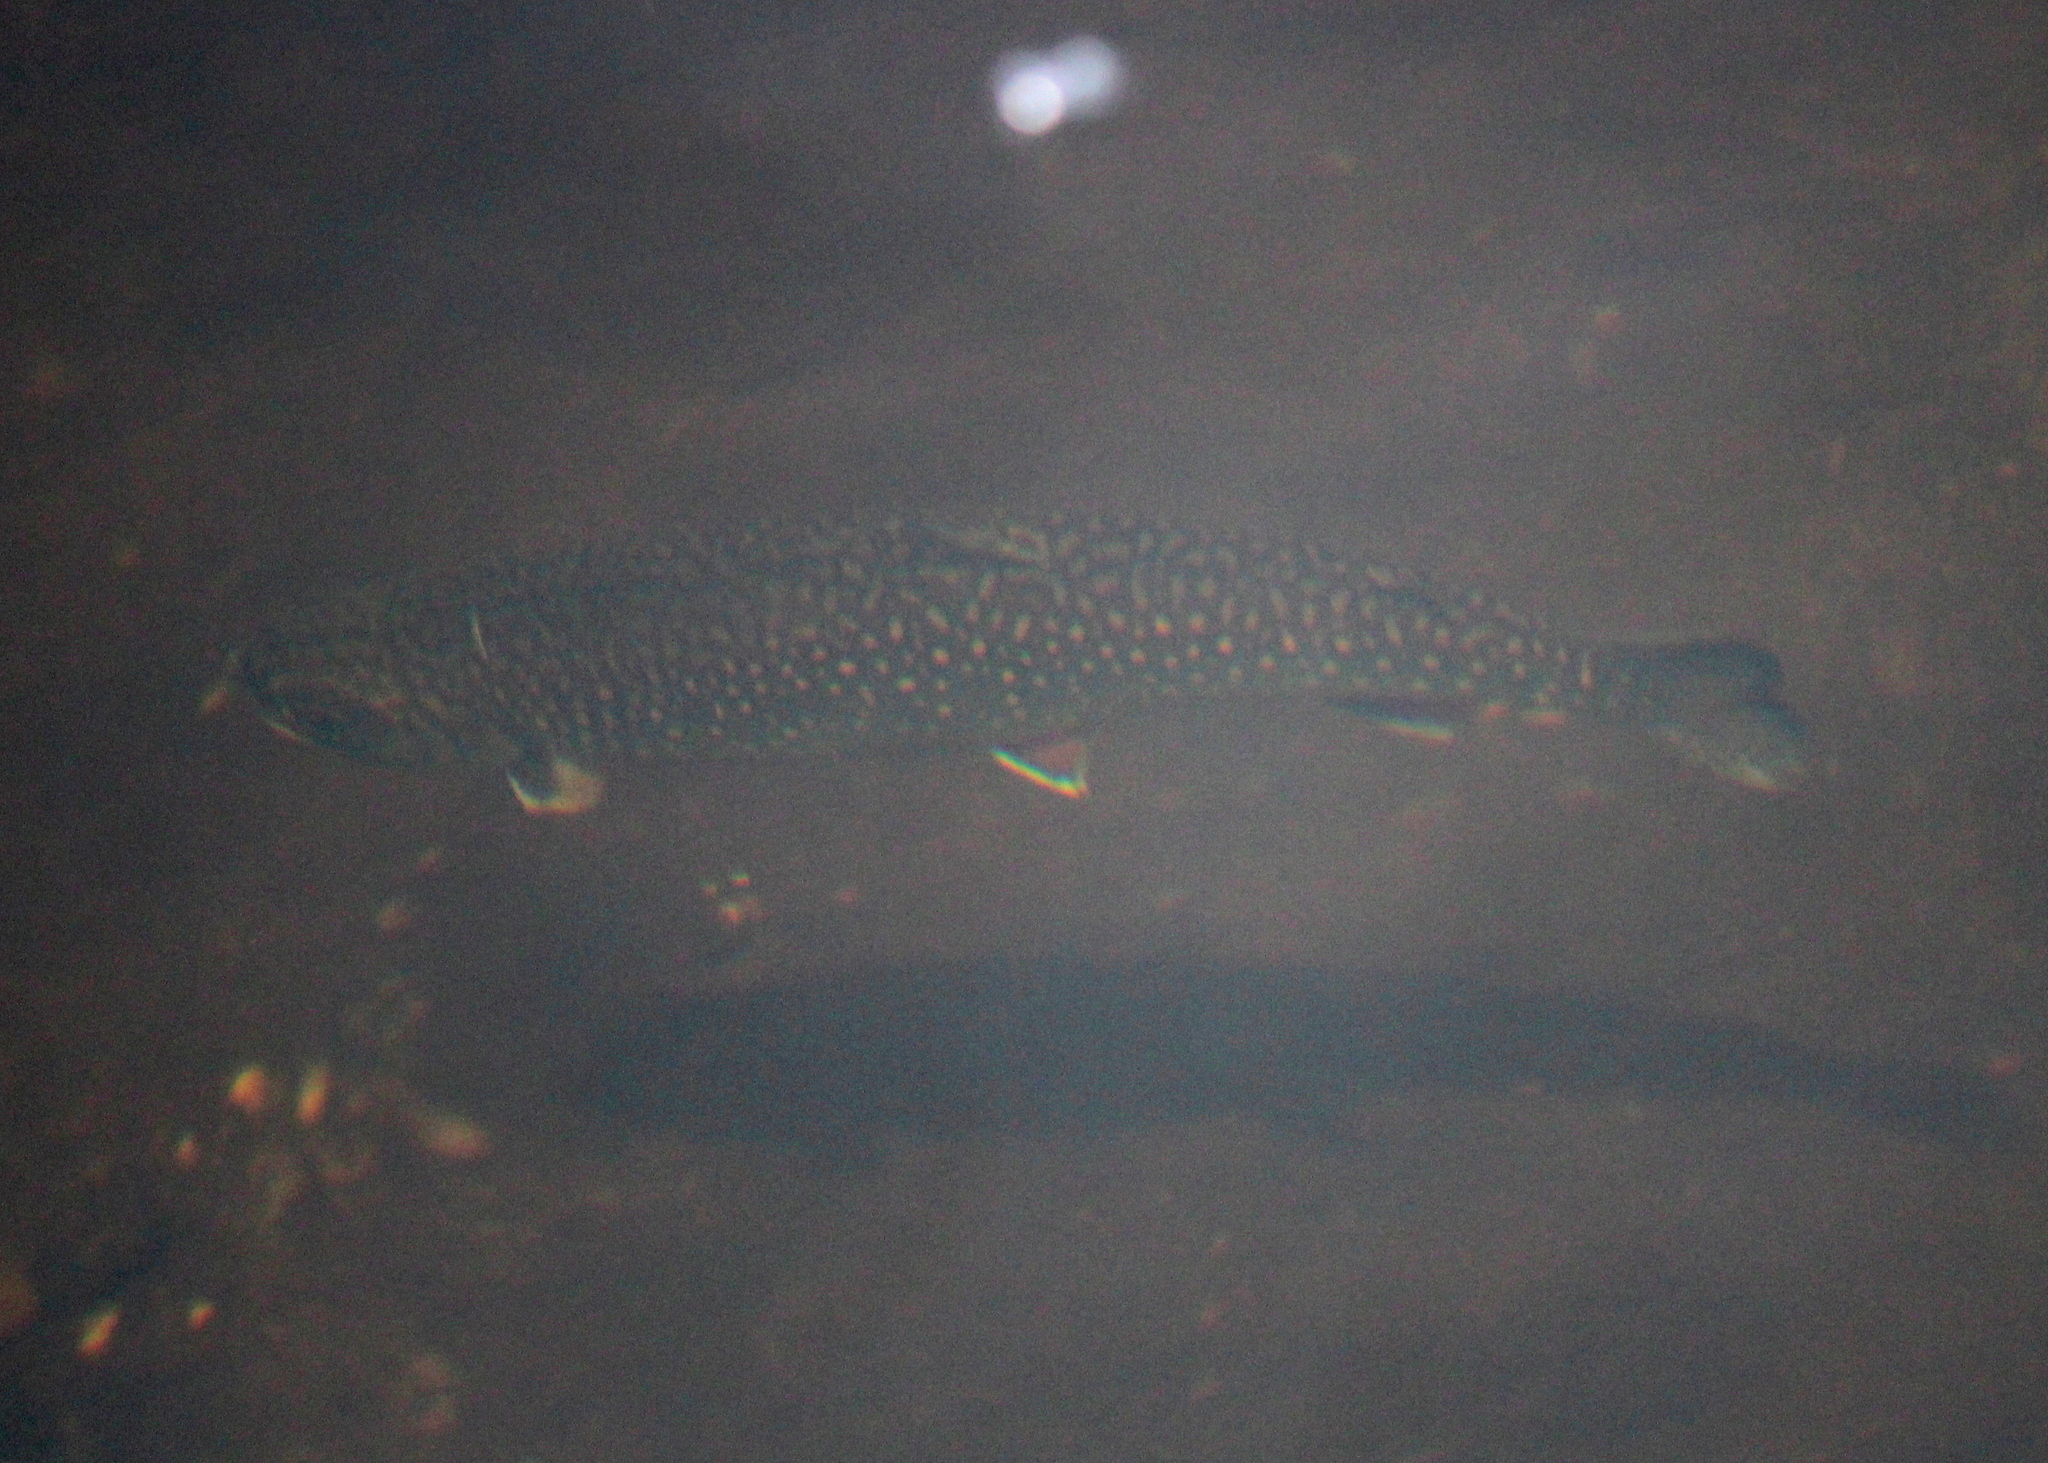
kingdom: Animalia
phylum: Chordata
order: Salmoniformes
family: Salmonidae
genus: Salvelinus
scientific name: Salvelinus fontinalis
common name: Brook trout
